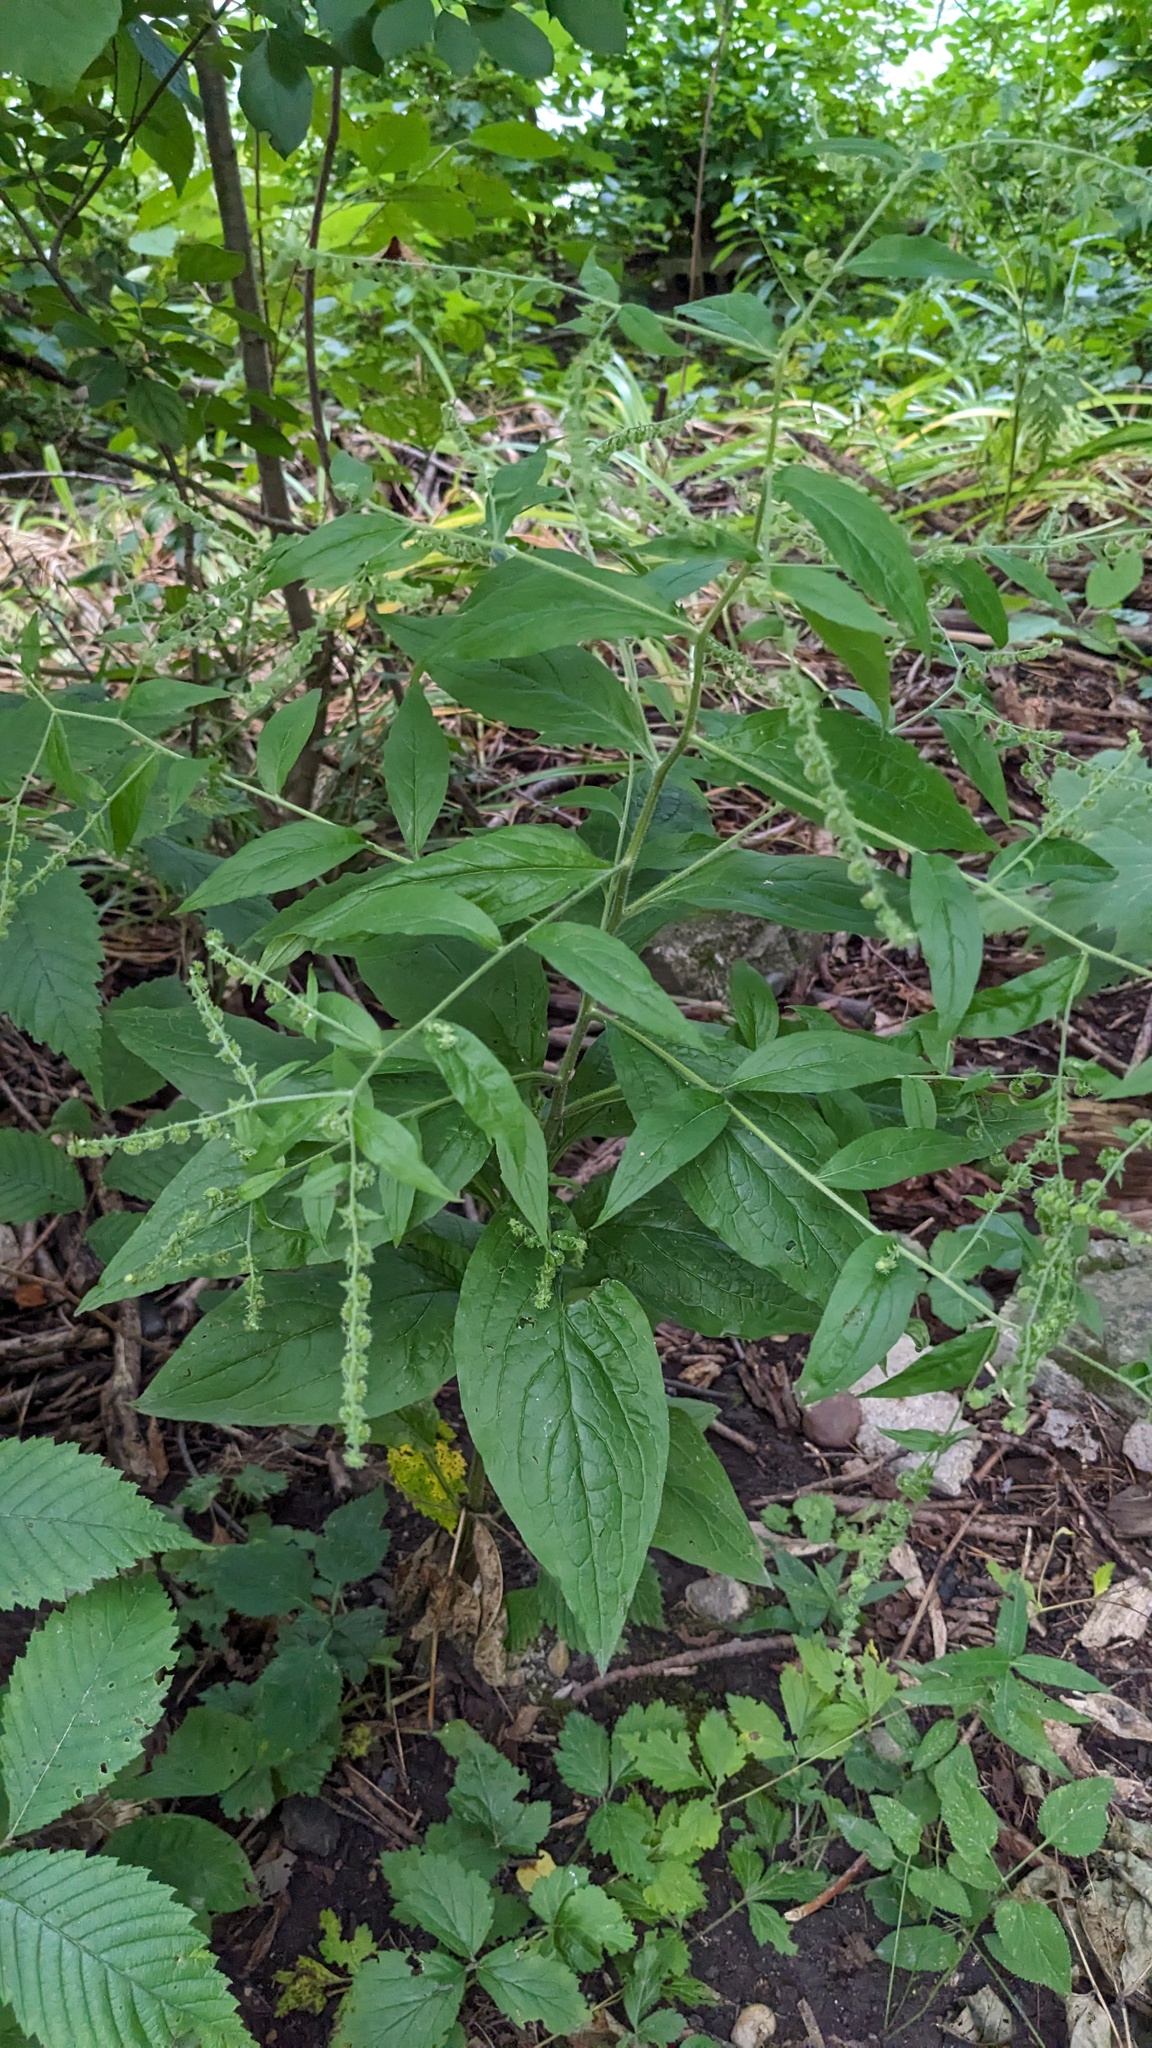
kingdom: Plantae
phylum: Tracheophyta
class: Magnoliopsida
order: Boraginales
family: Boraginaceae
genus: Hackelia
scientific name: Hackelia virginiana
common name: Beggar's-lice
